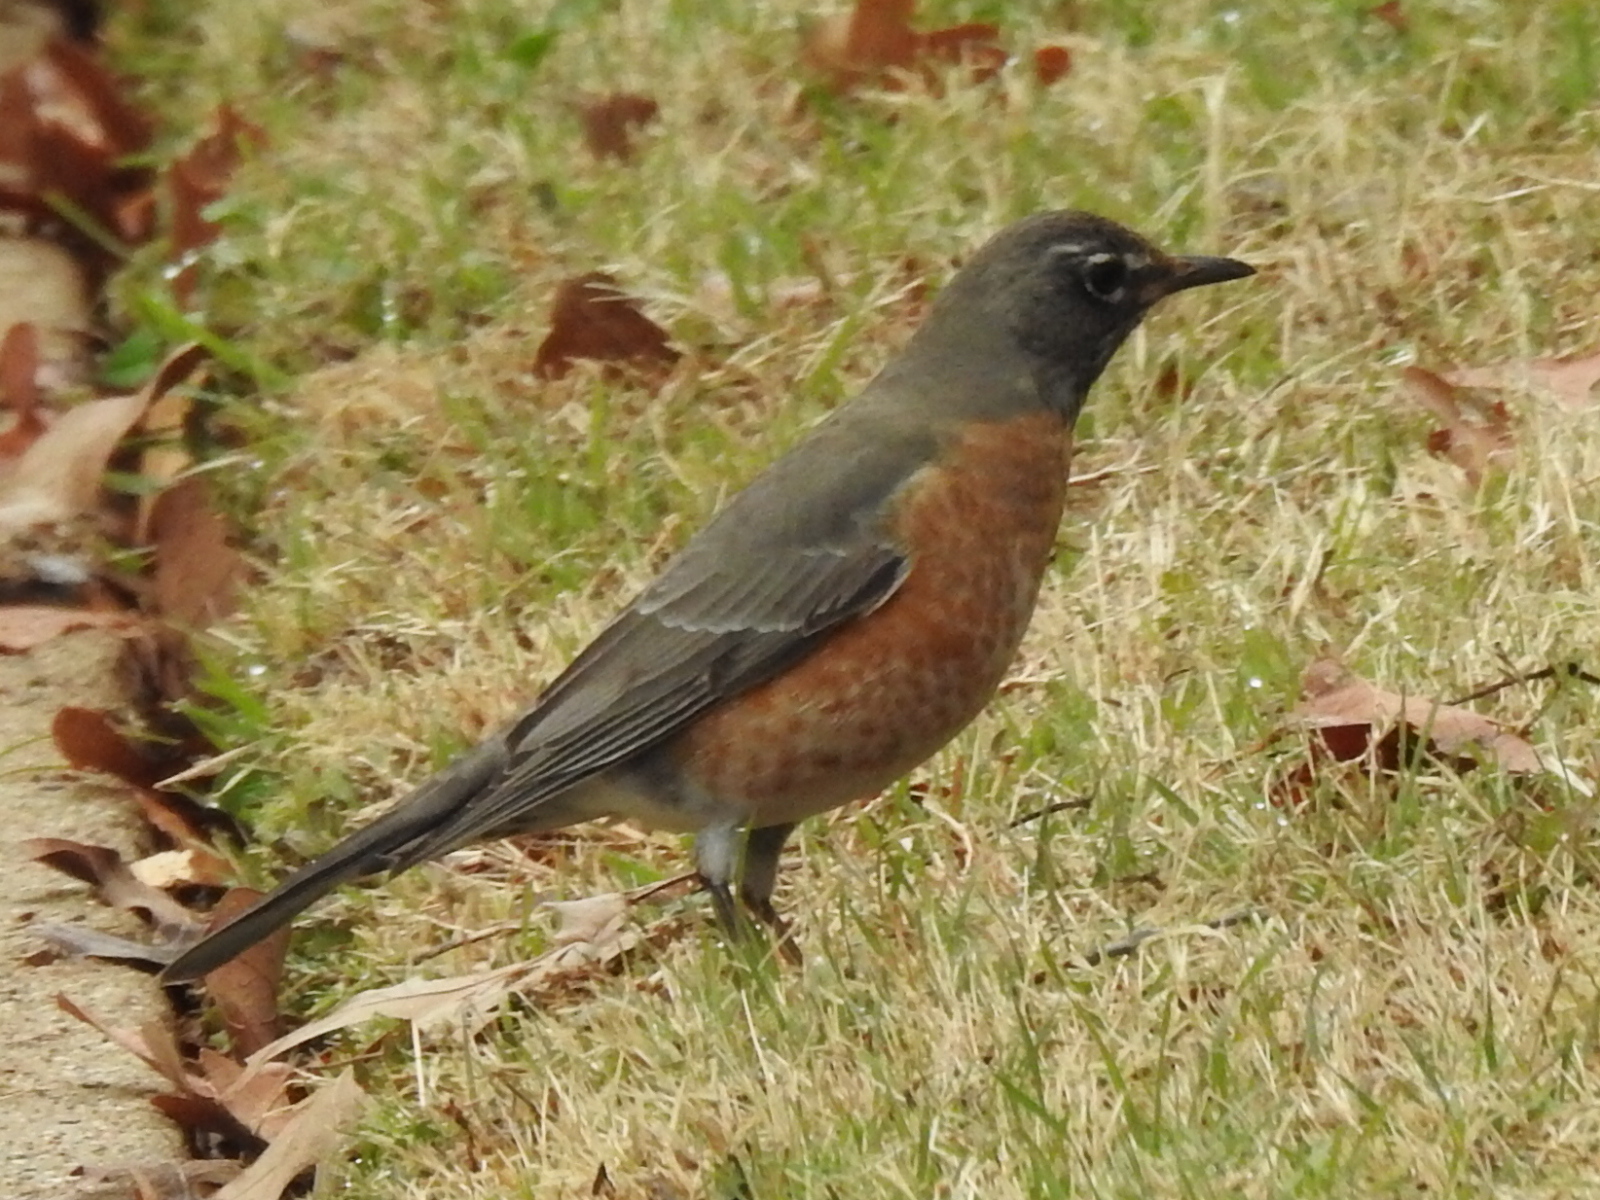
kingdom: Animalia
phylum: Chordata
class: Aves
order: Passeriformes
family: Turdidae
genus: Turdus
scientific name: Turdus migratorius
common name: American robin
